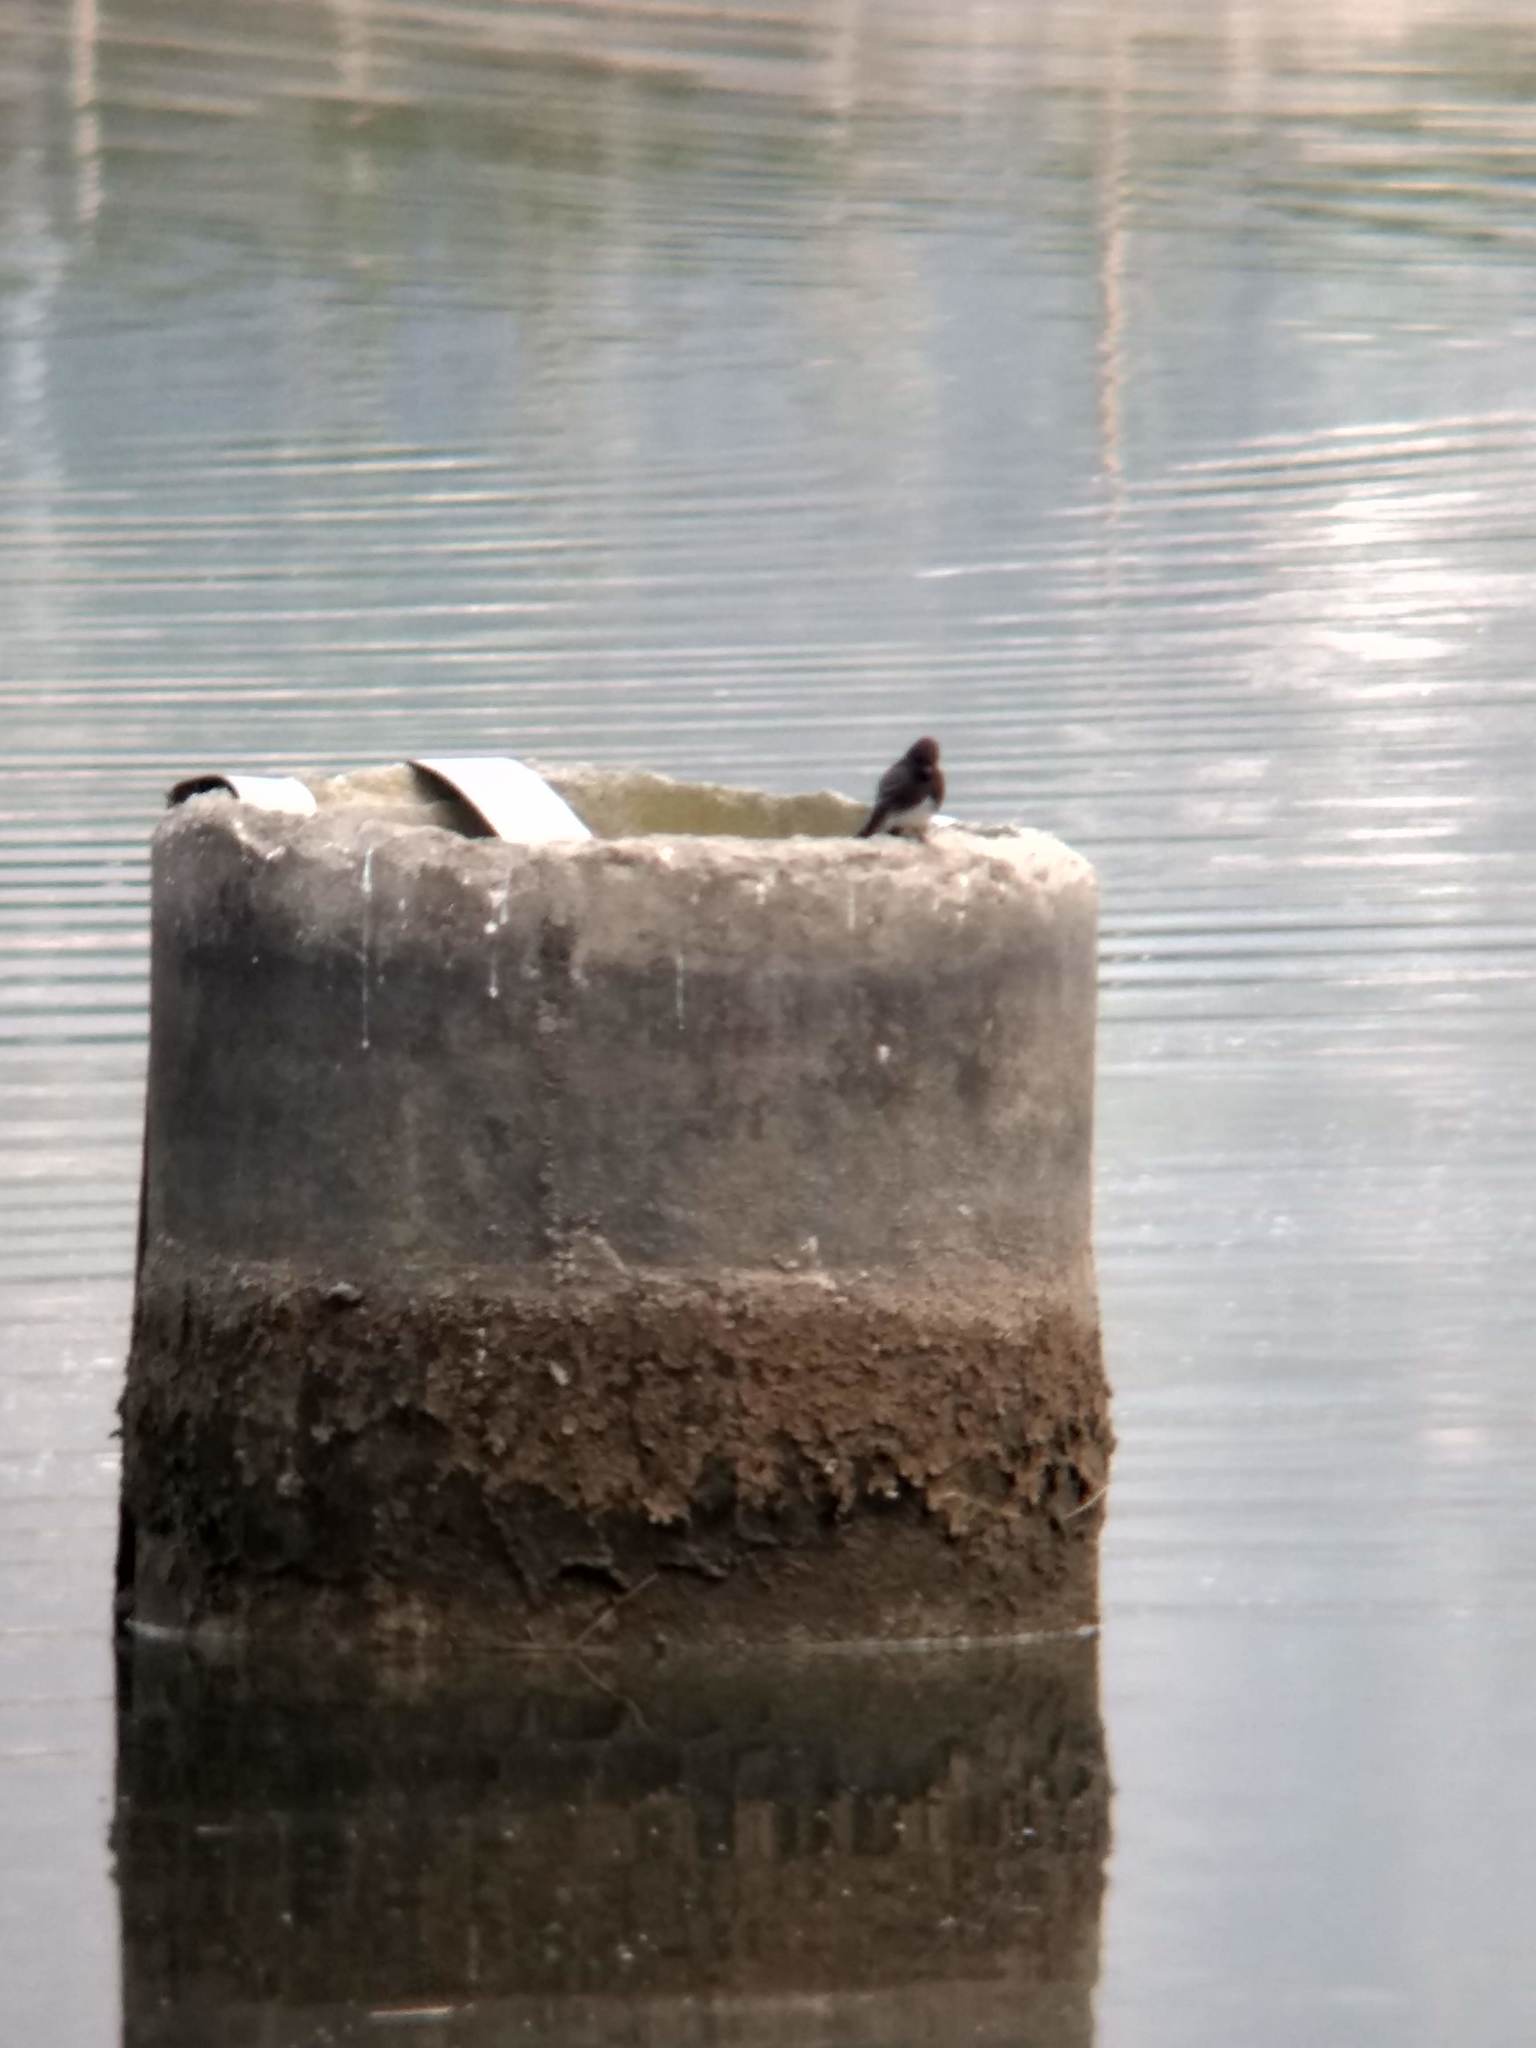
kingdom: Animalia
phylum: Chordata
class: Aves
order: Passeriformes
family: Tyrannidae
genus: Sayornis
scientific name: Sayornis nigricans
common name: Black phoebe
